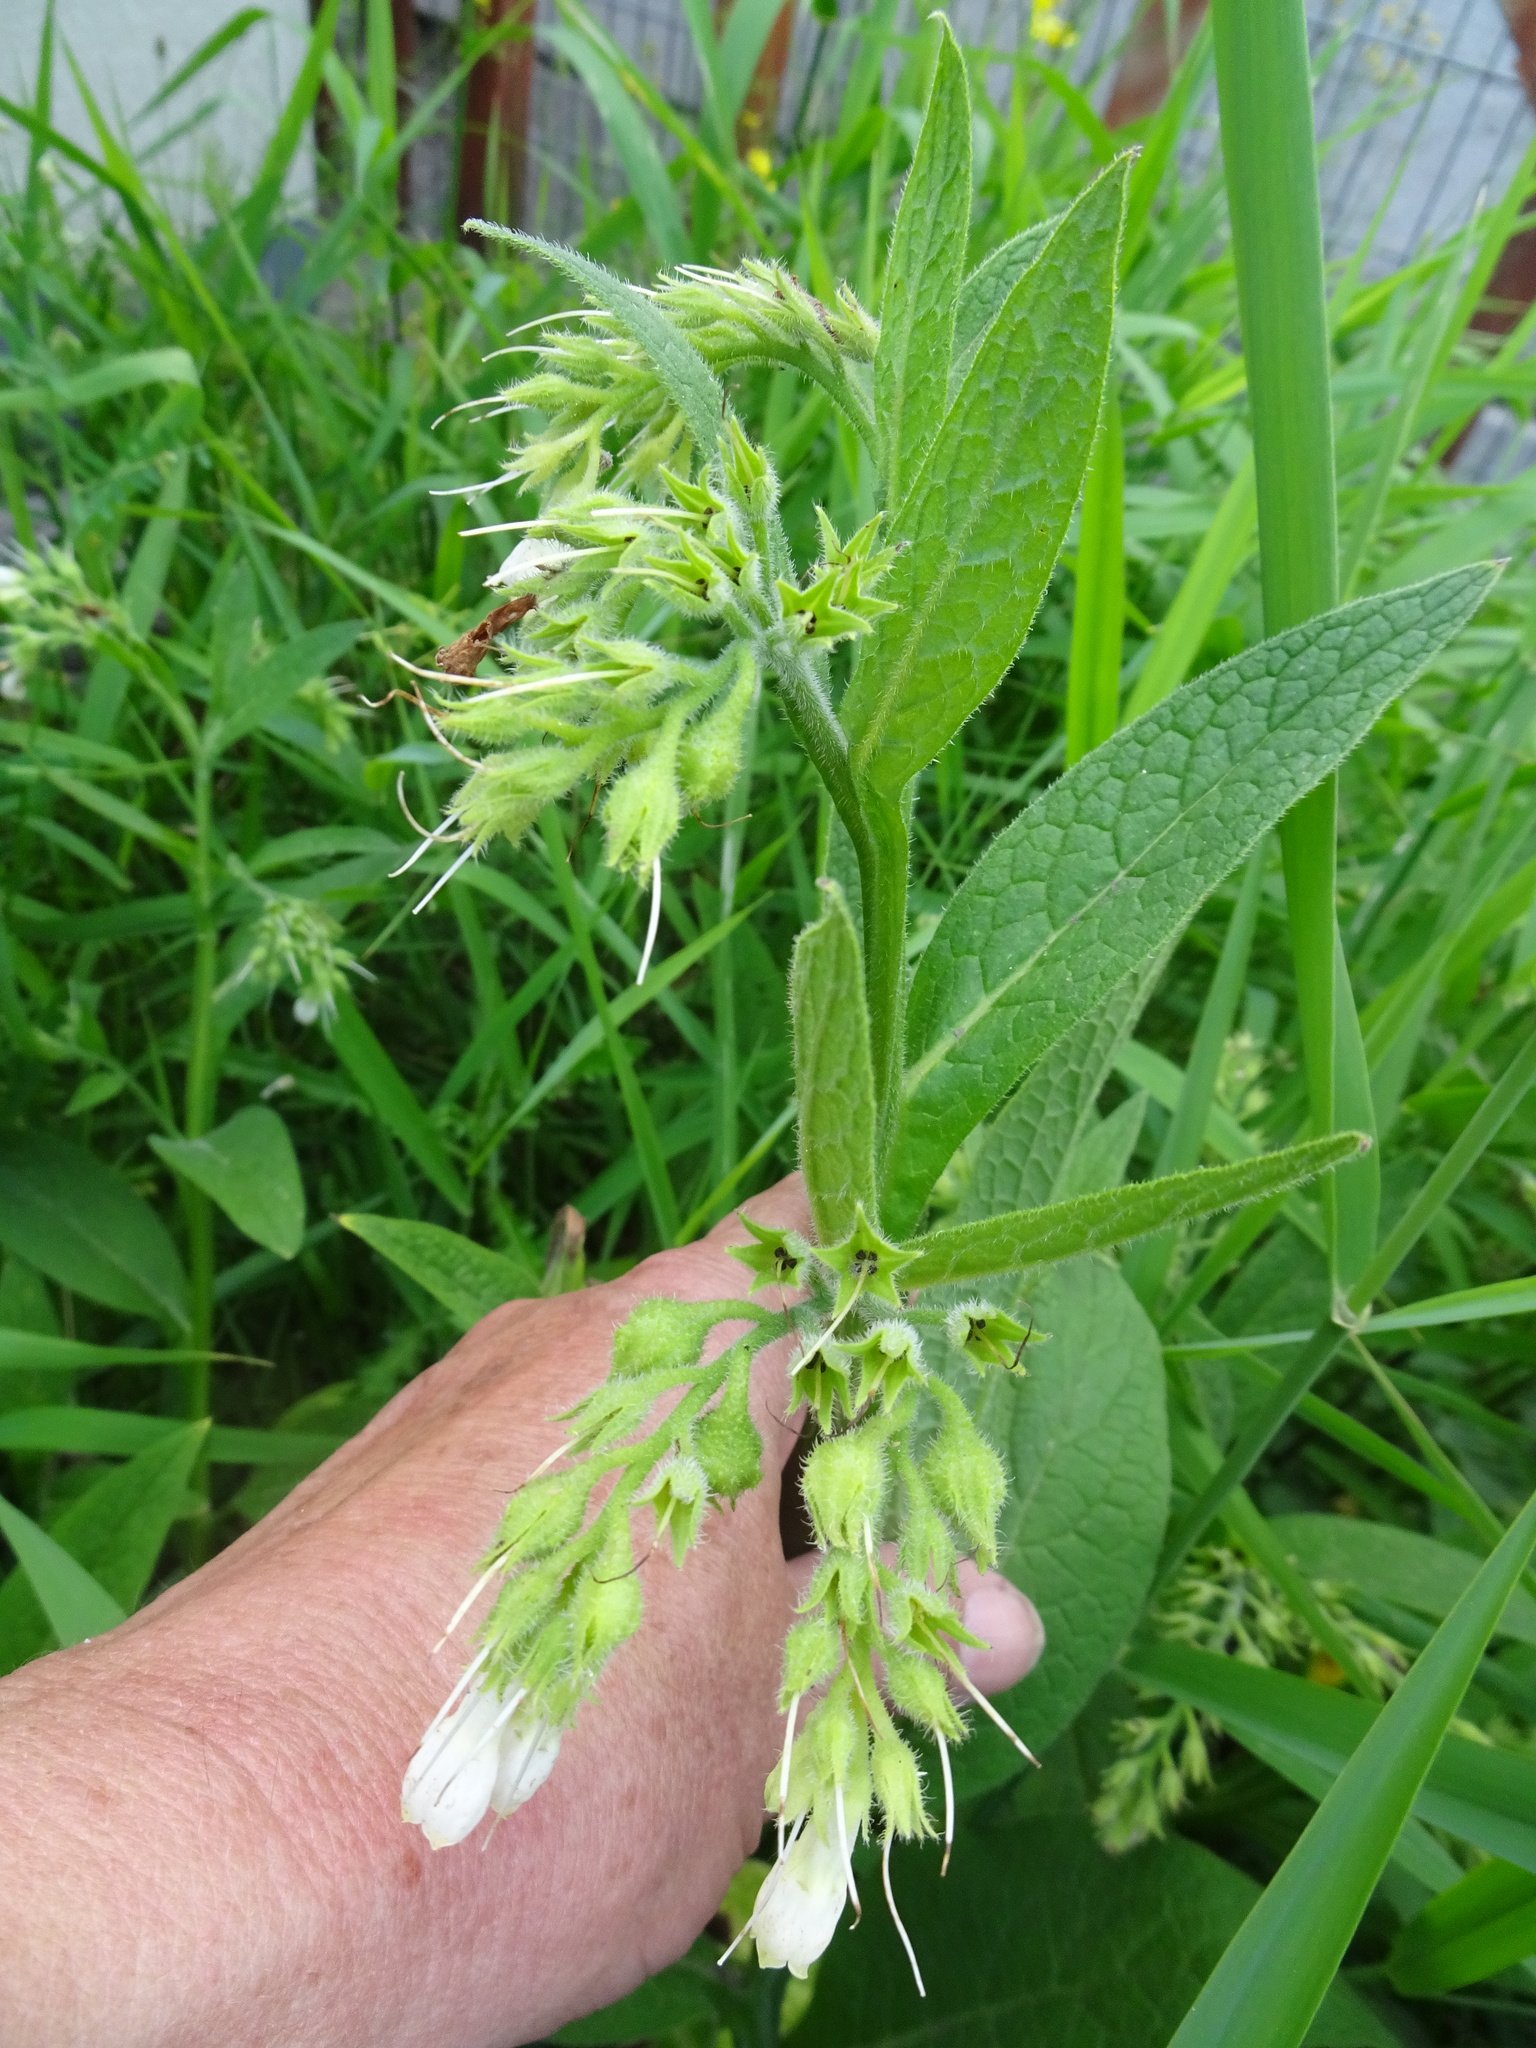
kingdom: Plantae
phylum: Tracheophyta
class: Magnoliopsida
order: Boraginales
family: Boraginaceae
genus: Symphytum
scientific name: Symphytum officinale
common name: Common comfrey
